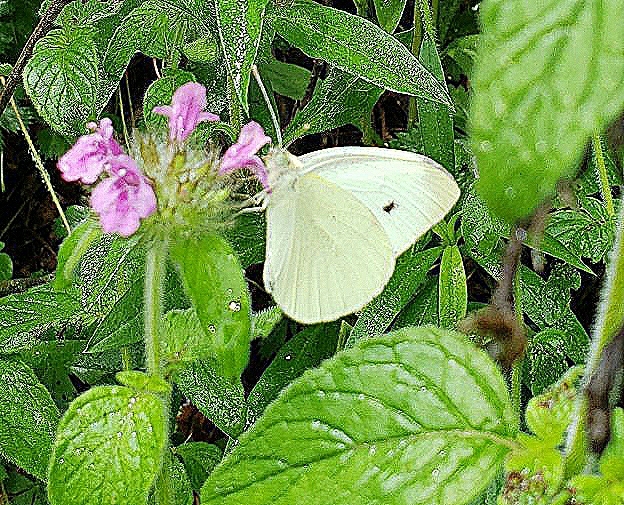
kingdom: Animalia
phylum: Arthropoda
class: Insecta
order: Lepidoptera
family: Pieridae
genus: Pieris
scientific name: Pieris rapae
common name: Small white
